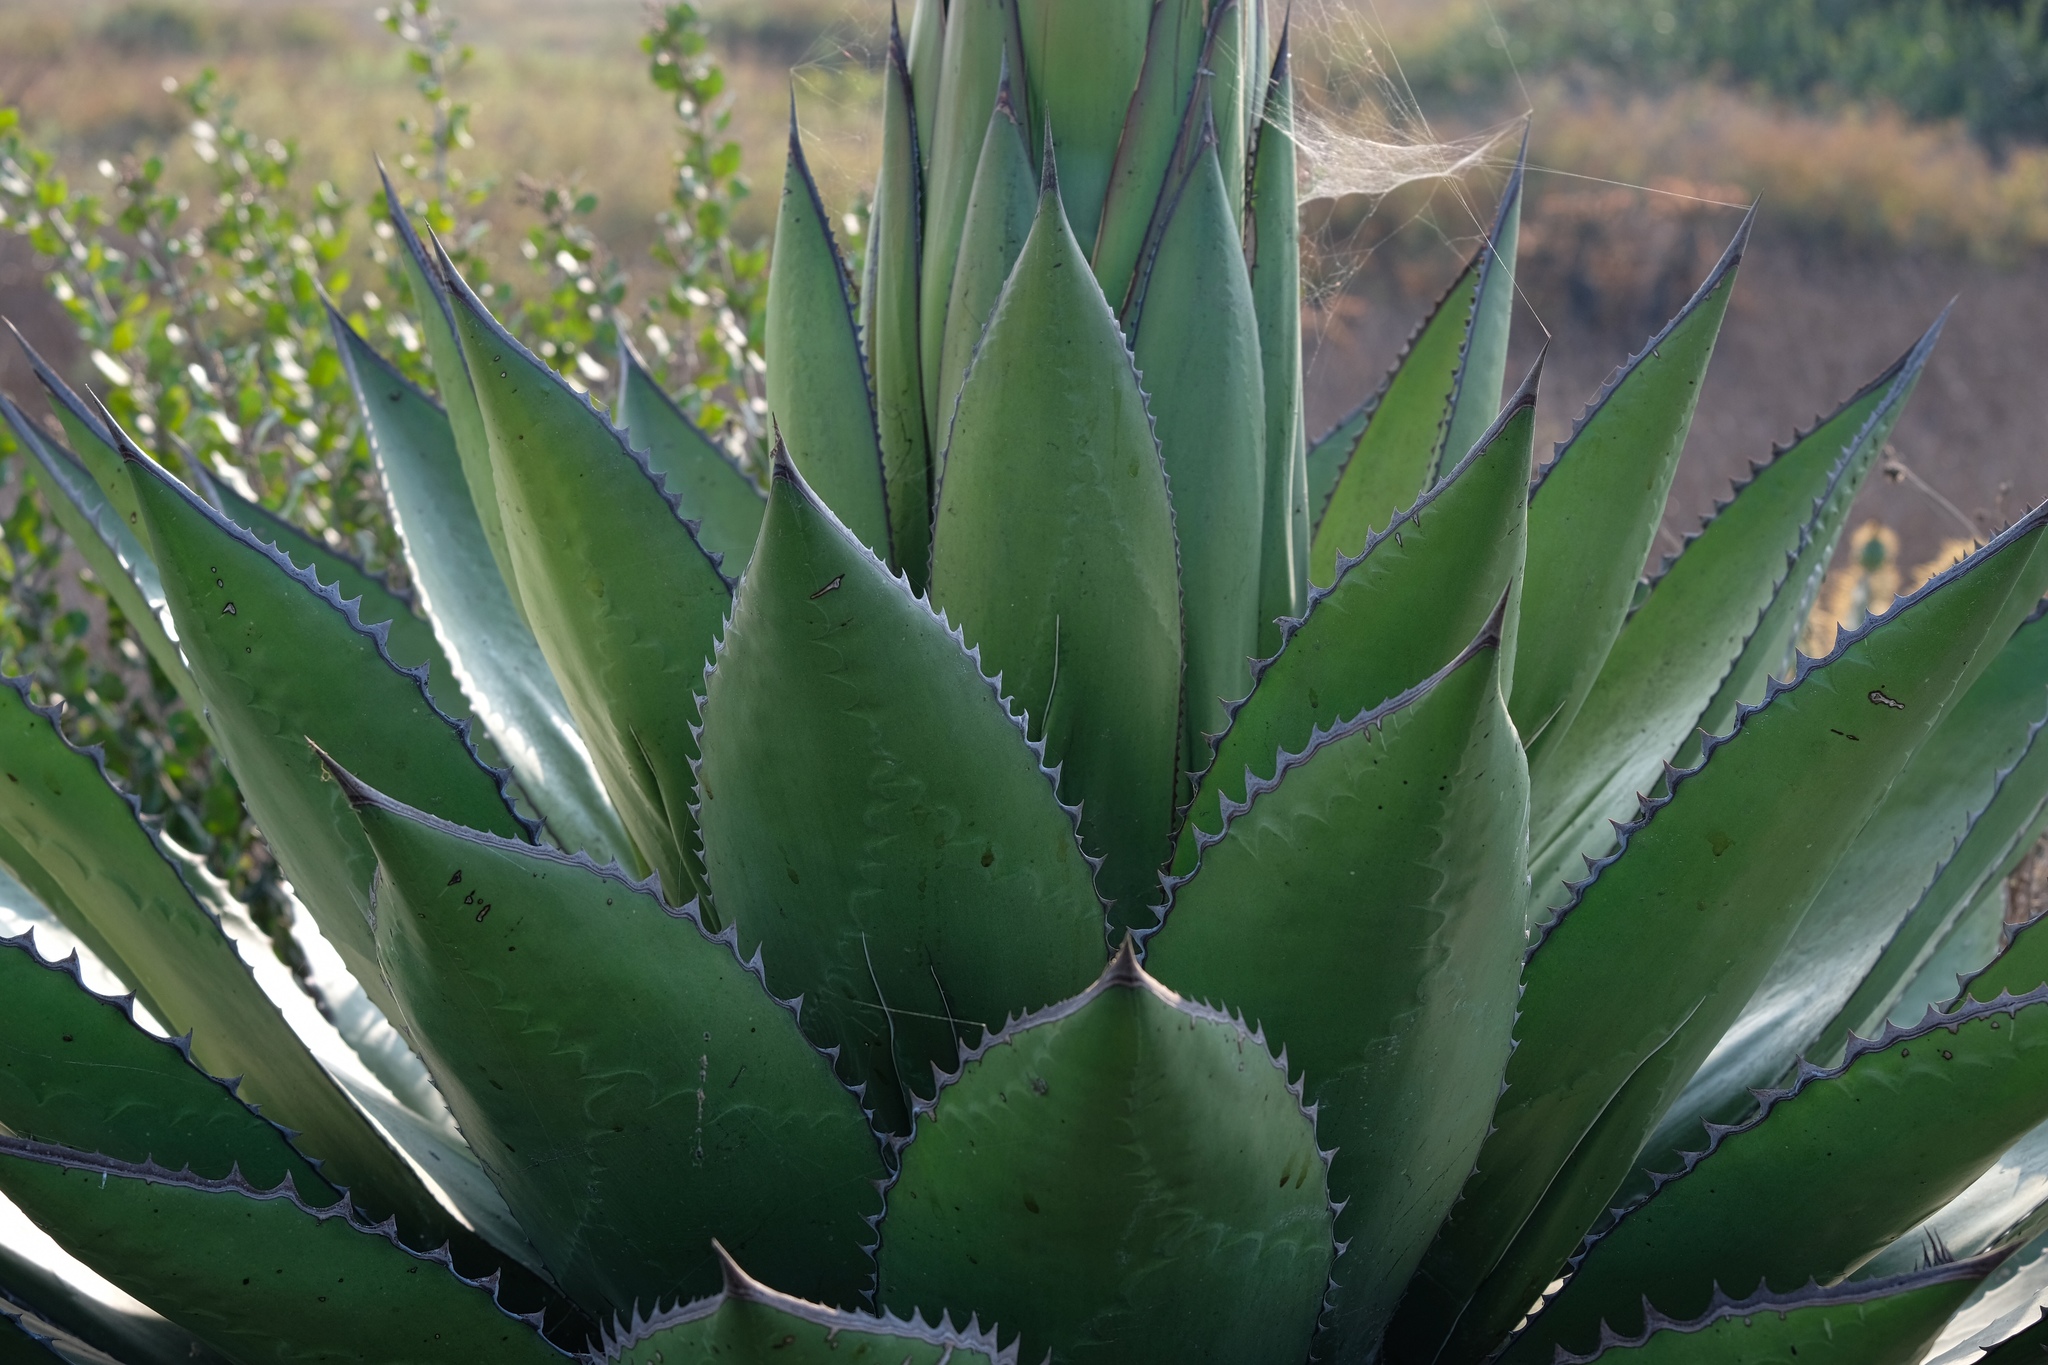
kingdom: Plantae
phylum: Tracheophyta
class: Liliopsida
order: Asparagales
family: Asparagaceae
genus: Agave
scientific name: Agave shawii
